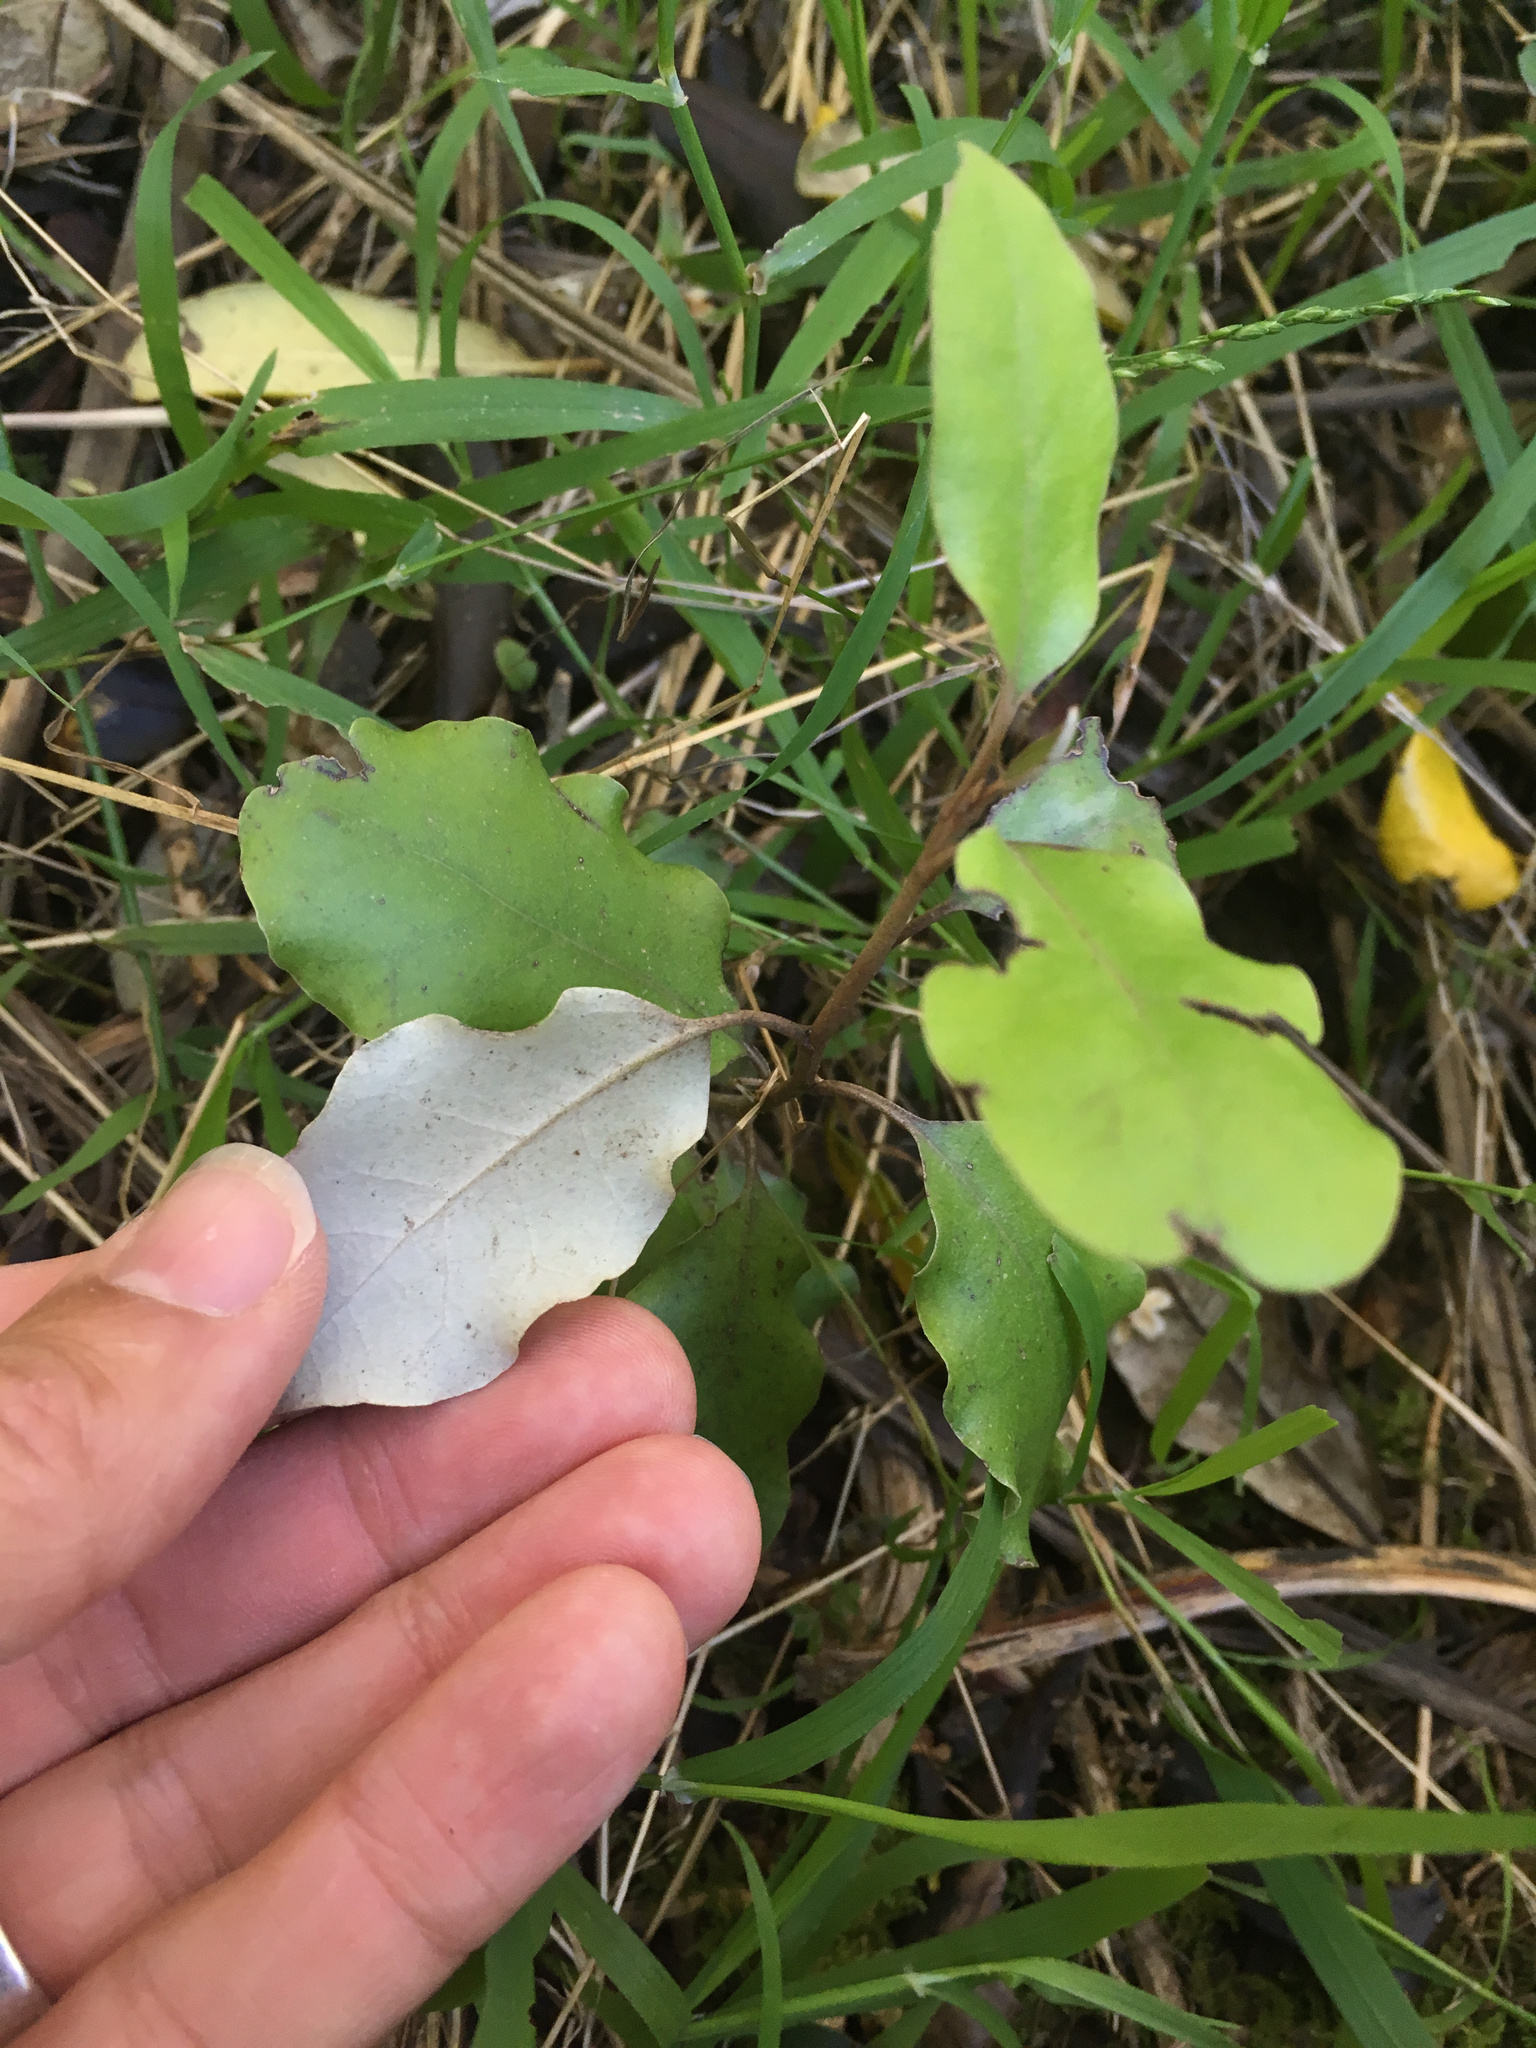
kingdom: Plantae
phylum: Tracheophyta
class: Magnoliopsida
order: Asterales
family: Asteraceae
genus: Olearia
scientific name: Olearia paniculata
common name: Akiraho
